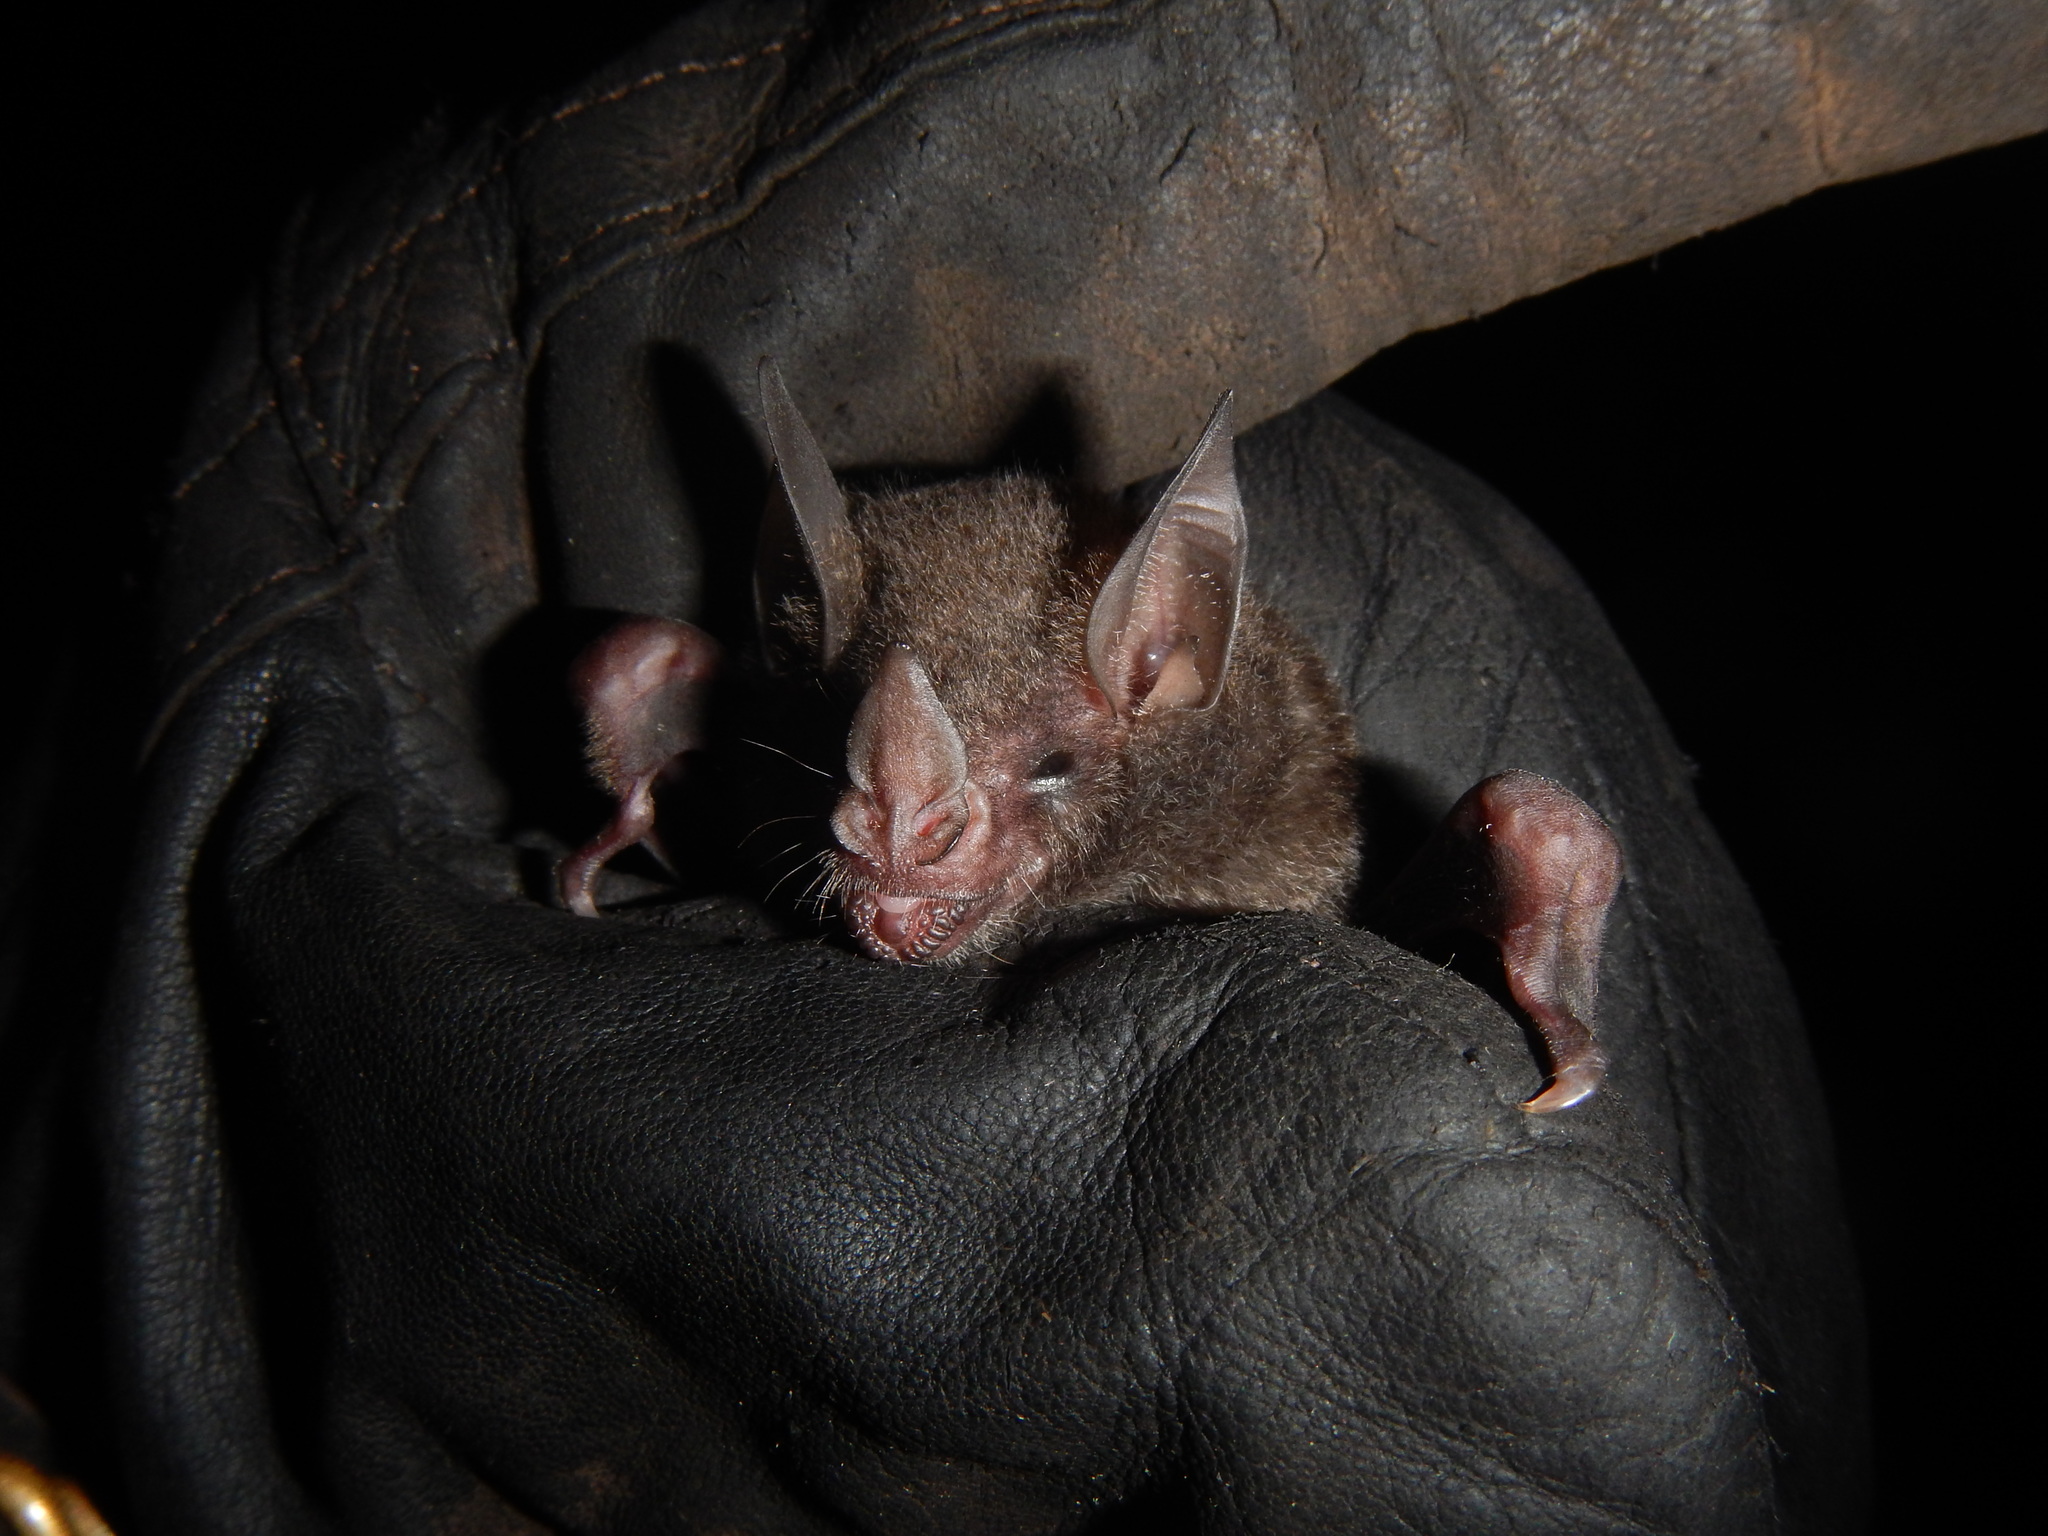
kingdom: Animalia
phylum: Chordata
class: Mammalia
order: Chiroptera
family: Phyllostomidae
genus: Carollia
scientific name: Carollia perspicillata
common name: Seba's short-tailed bat
